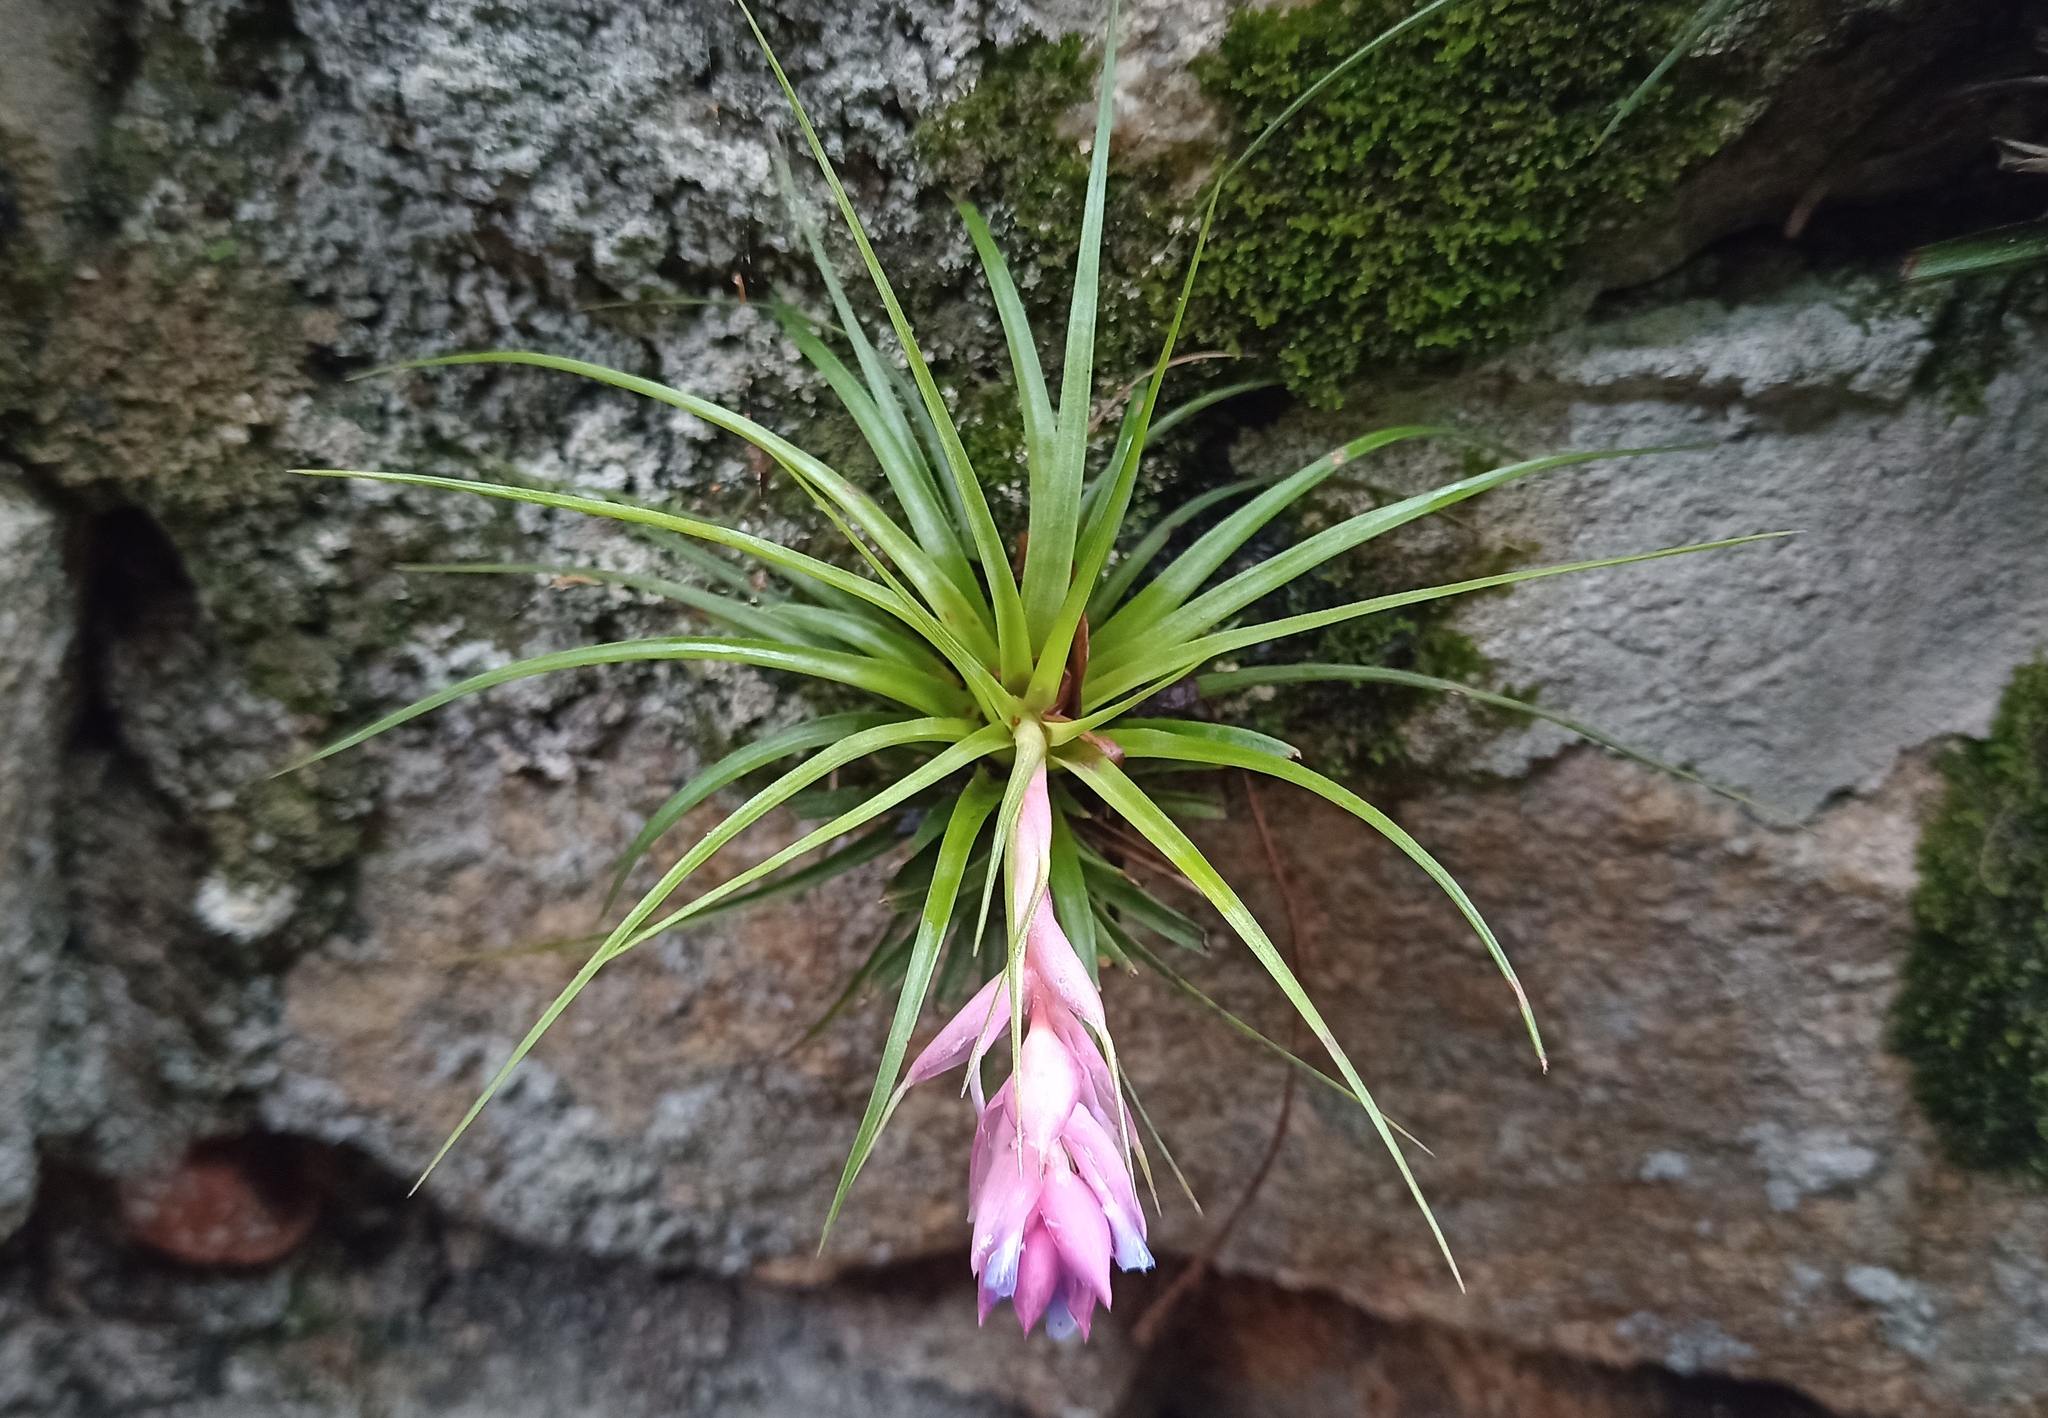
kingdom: Plantae
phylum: Tracheophyta
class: Liliopsida
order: Poales
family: Bromeliaceae
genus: Tillandsia
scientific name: Tillandsia stricta
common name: Airplant
